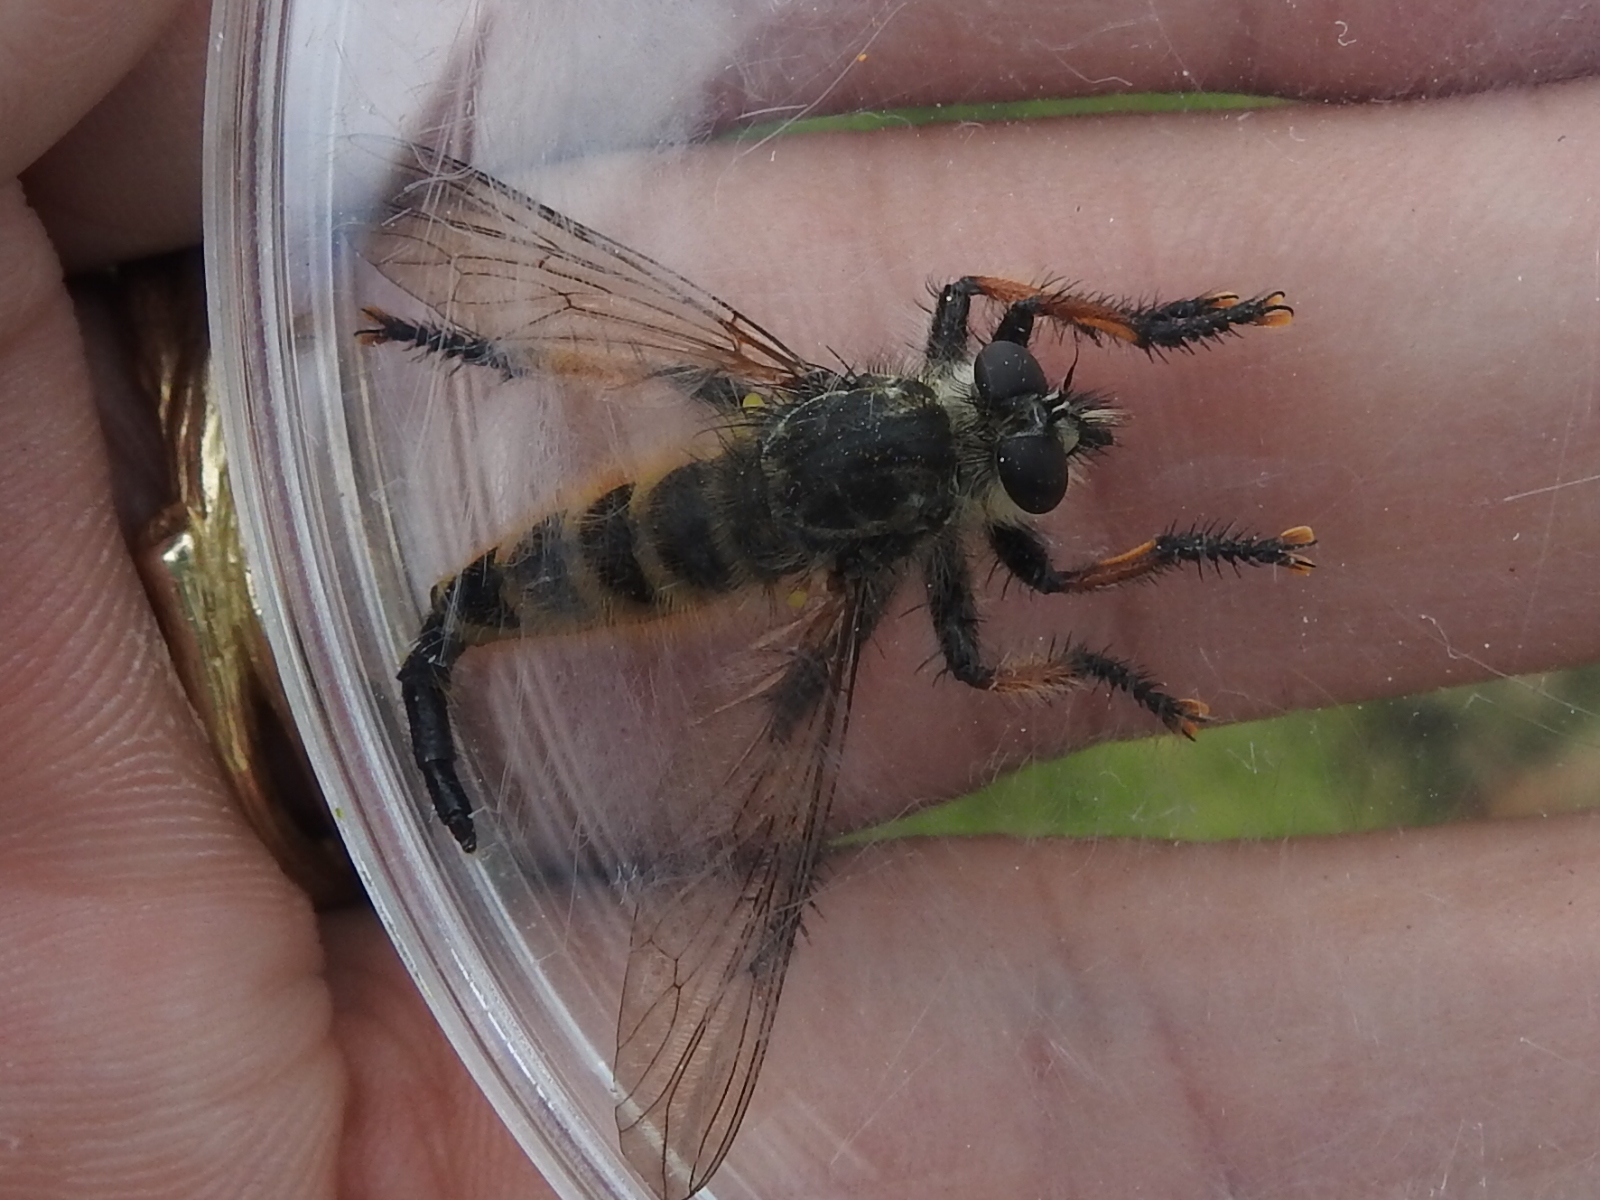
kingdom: Animalia
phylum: Arthropoda
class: Insecta
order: Diptera
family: Asilidae
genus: Promachus
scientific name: Promachus sackeni
